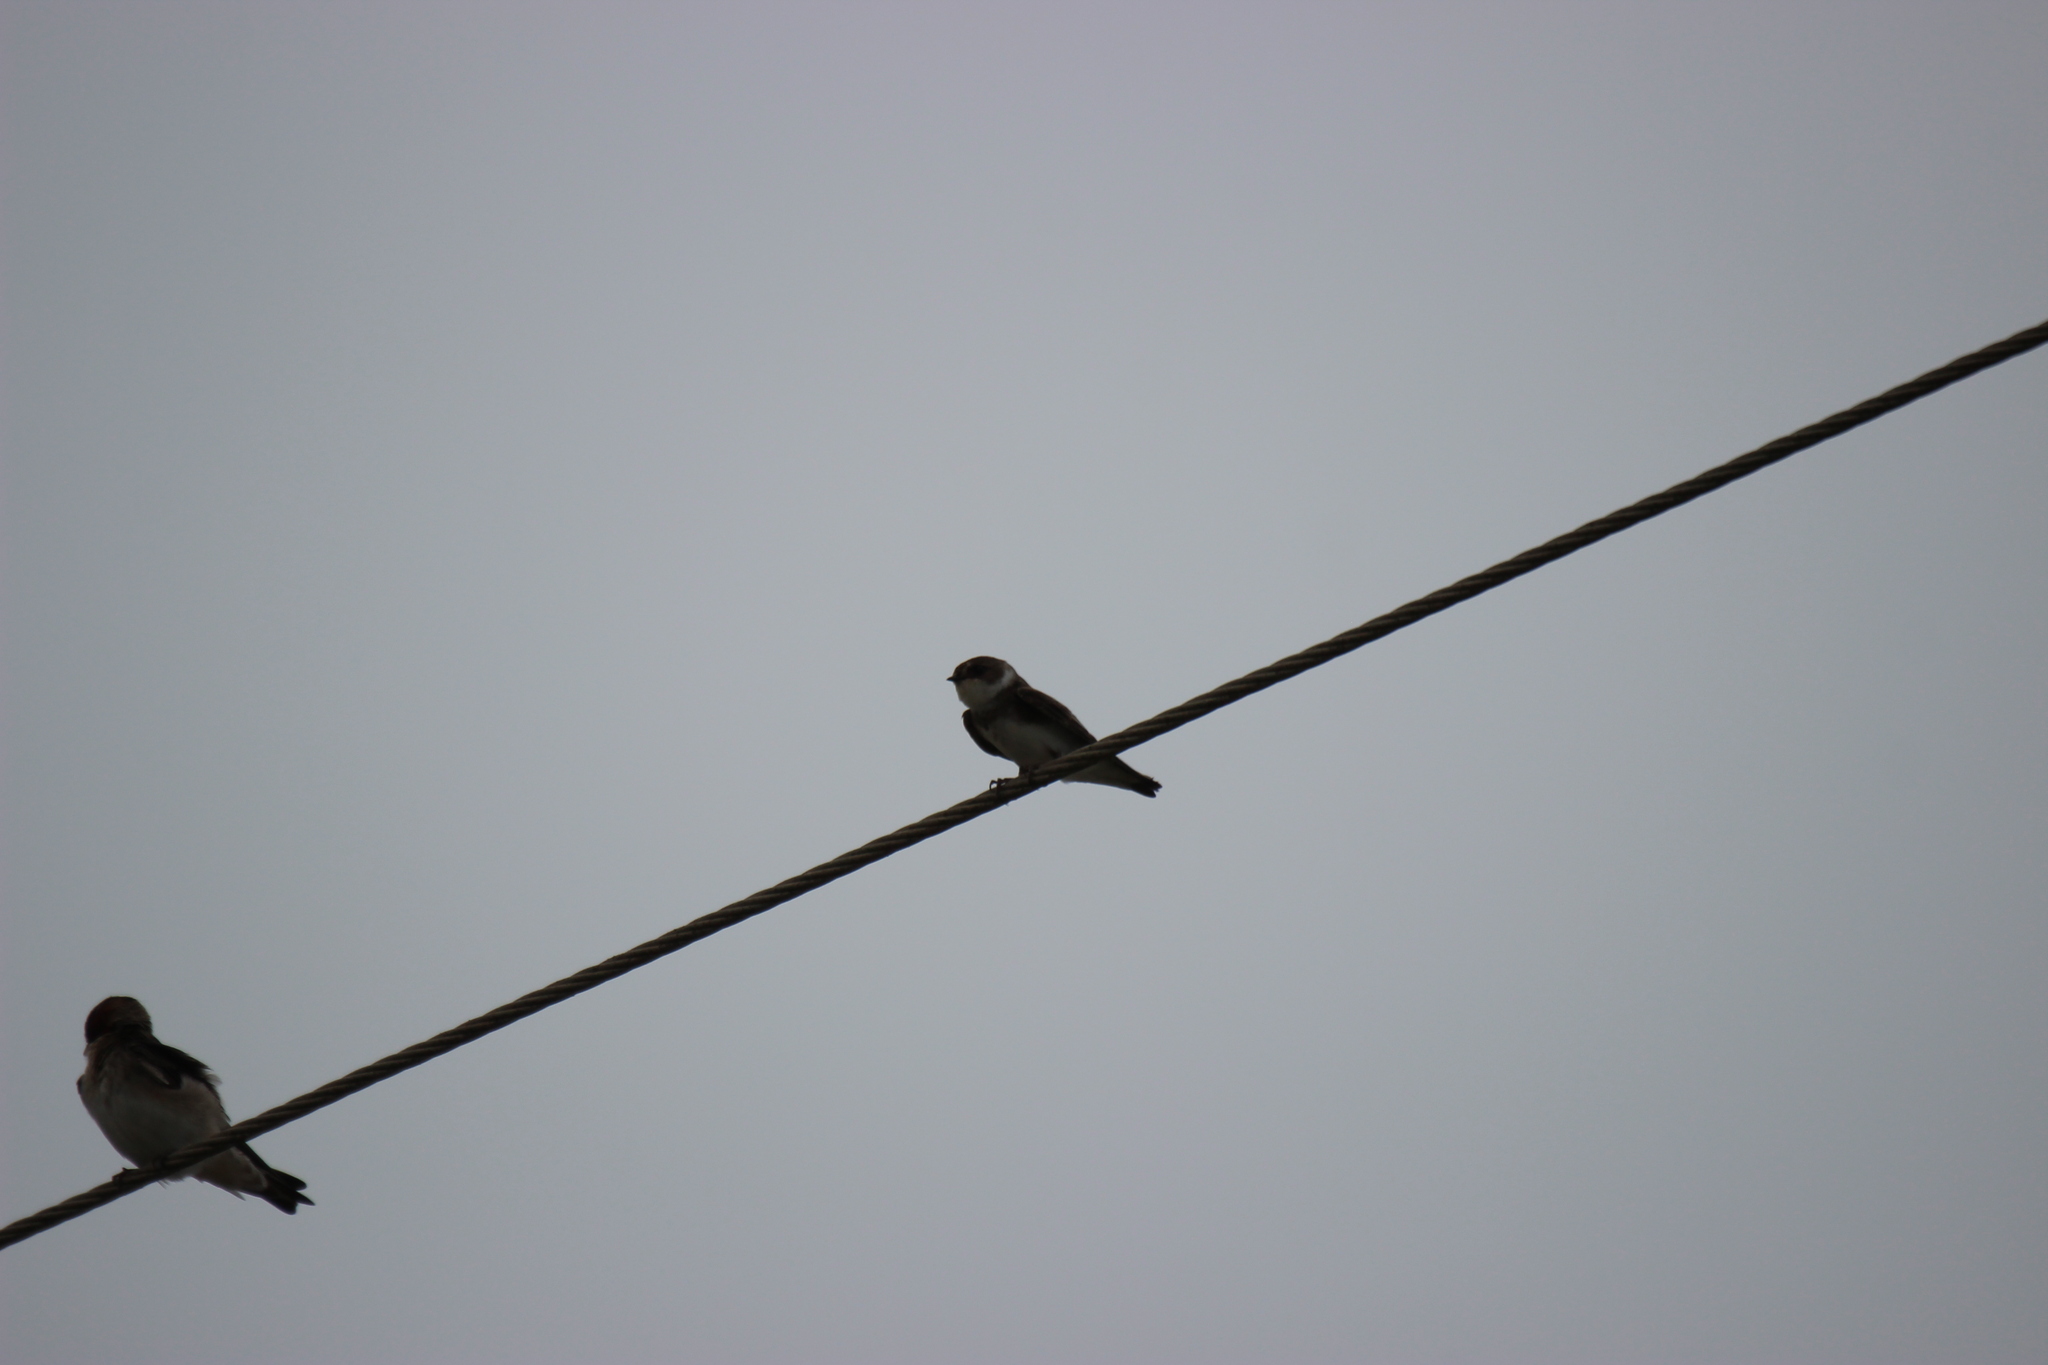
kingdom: Animalia
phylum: Chordata
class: Aves
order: Passeriformes
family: Hirundinidae
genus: Riparia
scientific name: Riparia riparia
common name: Sand martin
